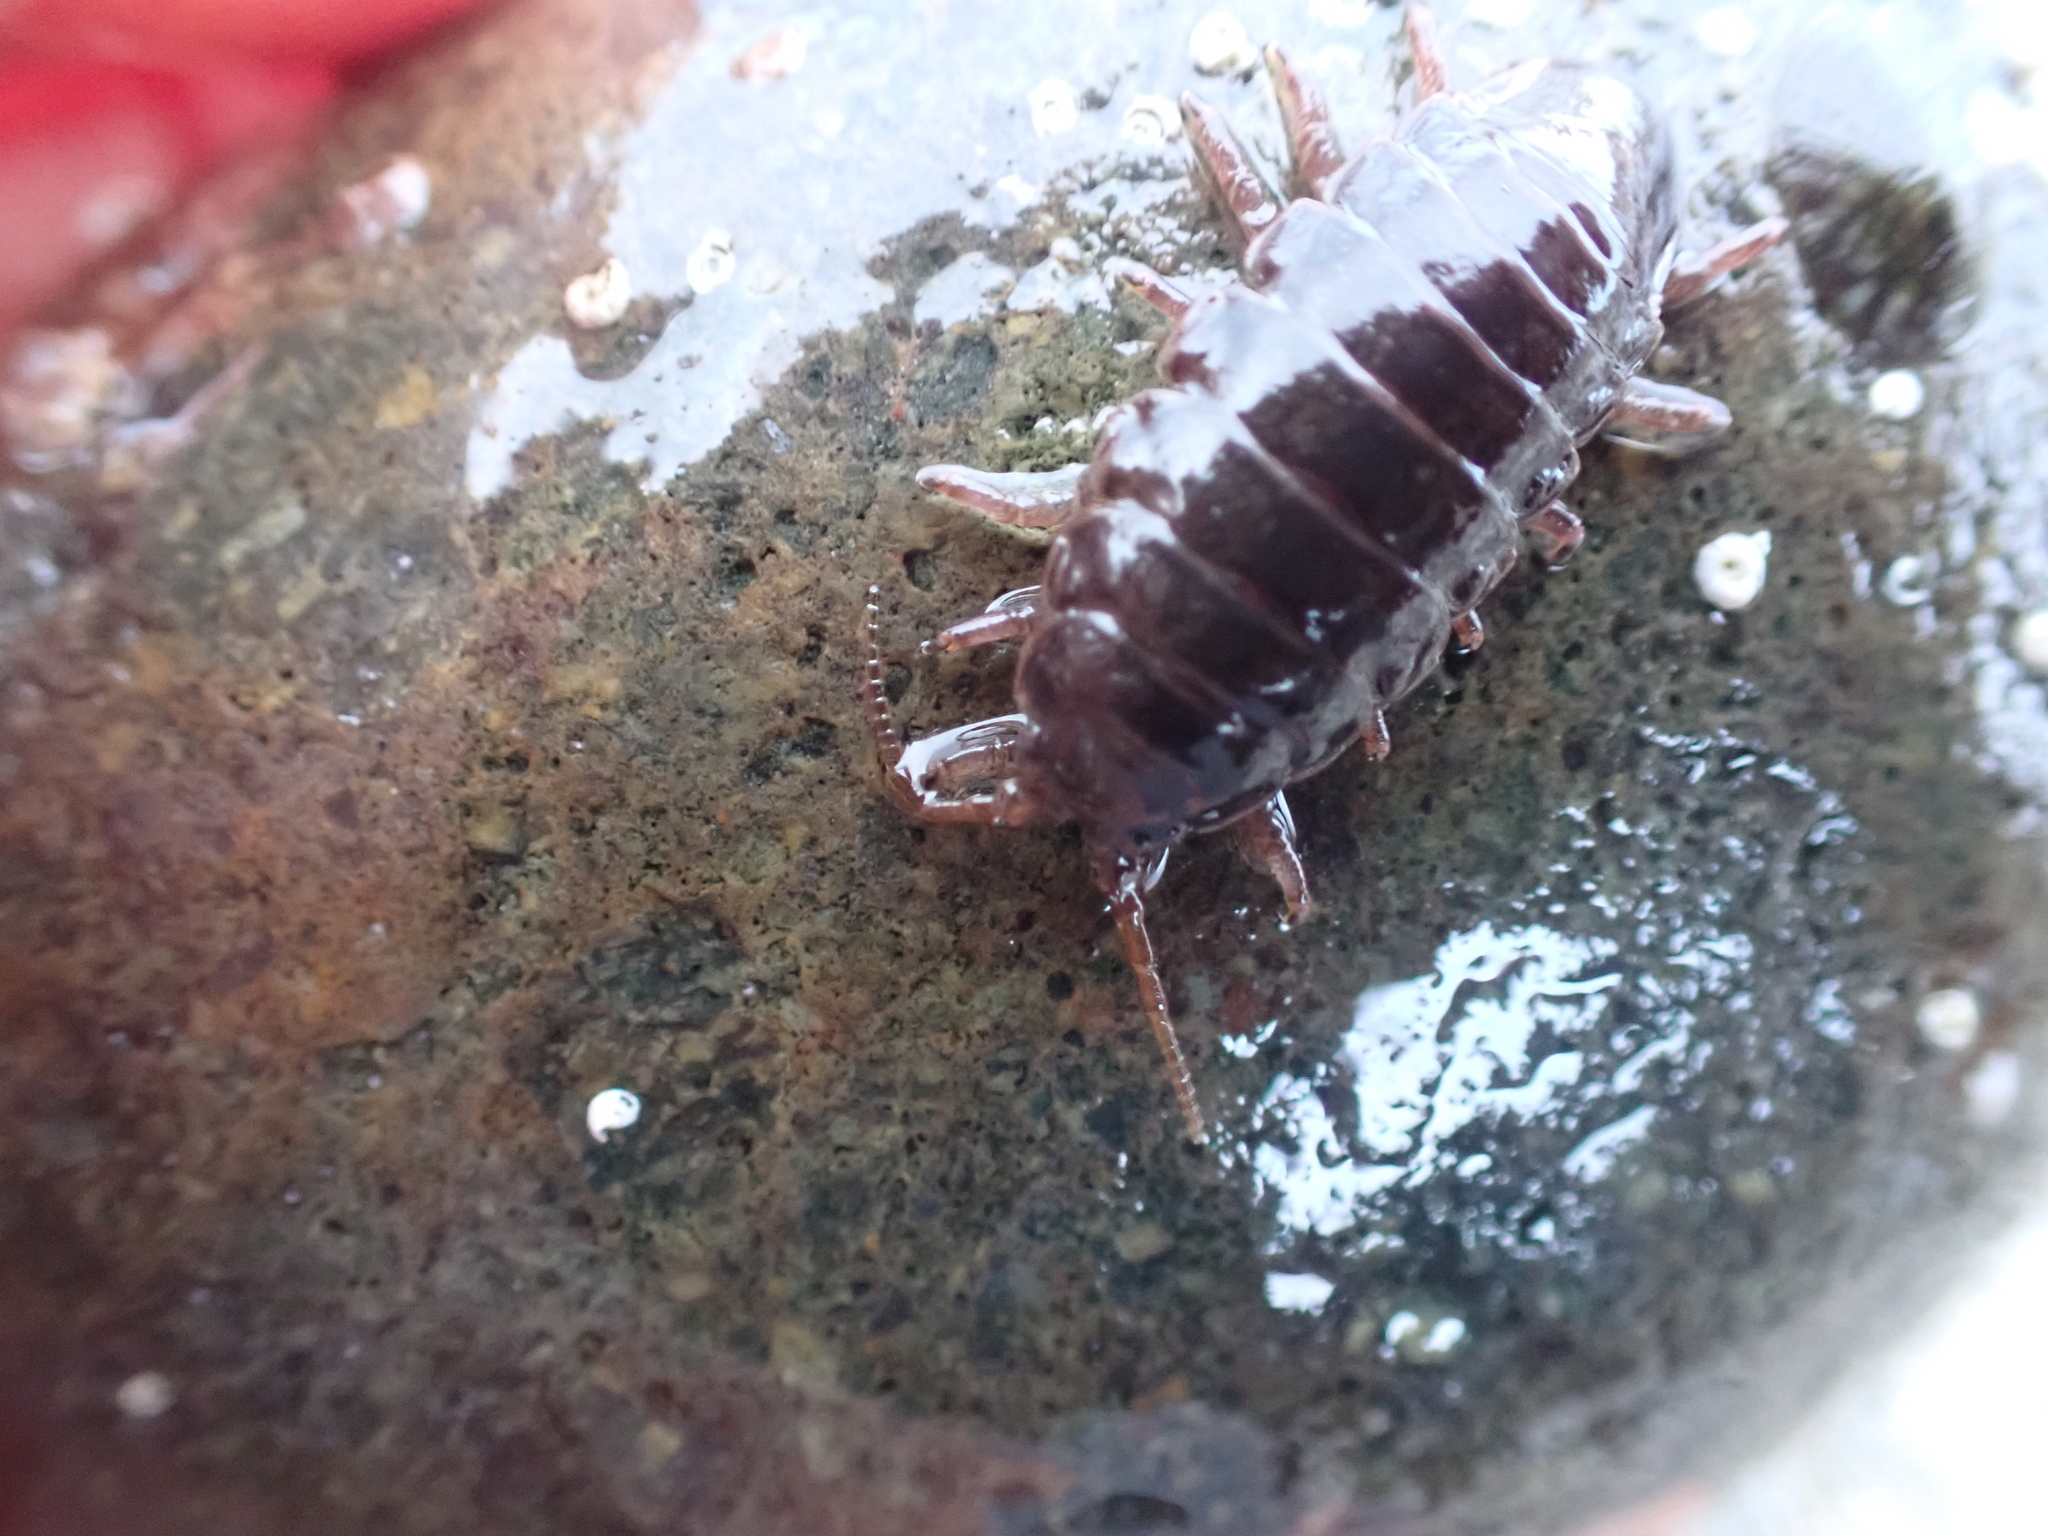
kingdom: Animalia
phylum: Arthropoda
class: Malacostraca
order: Isopoda
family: Idoteidae
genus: Pentidotea
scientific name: Pentidotea wosnesenskii
